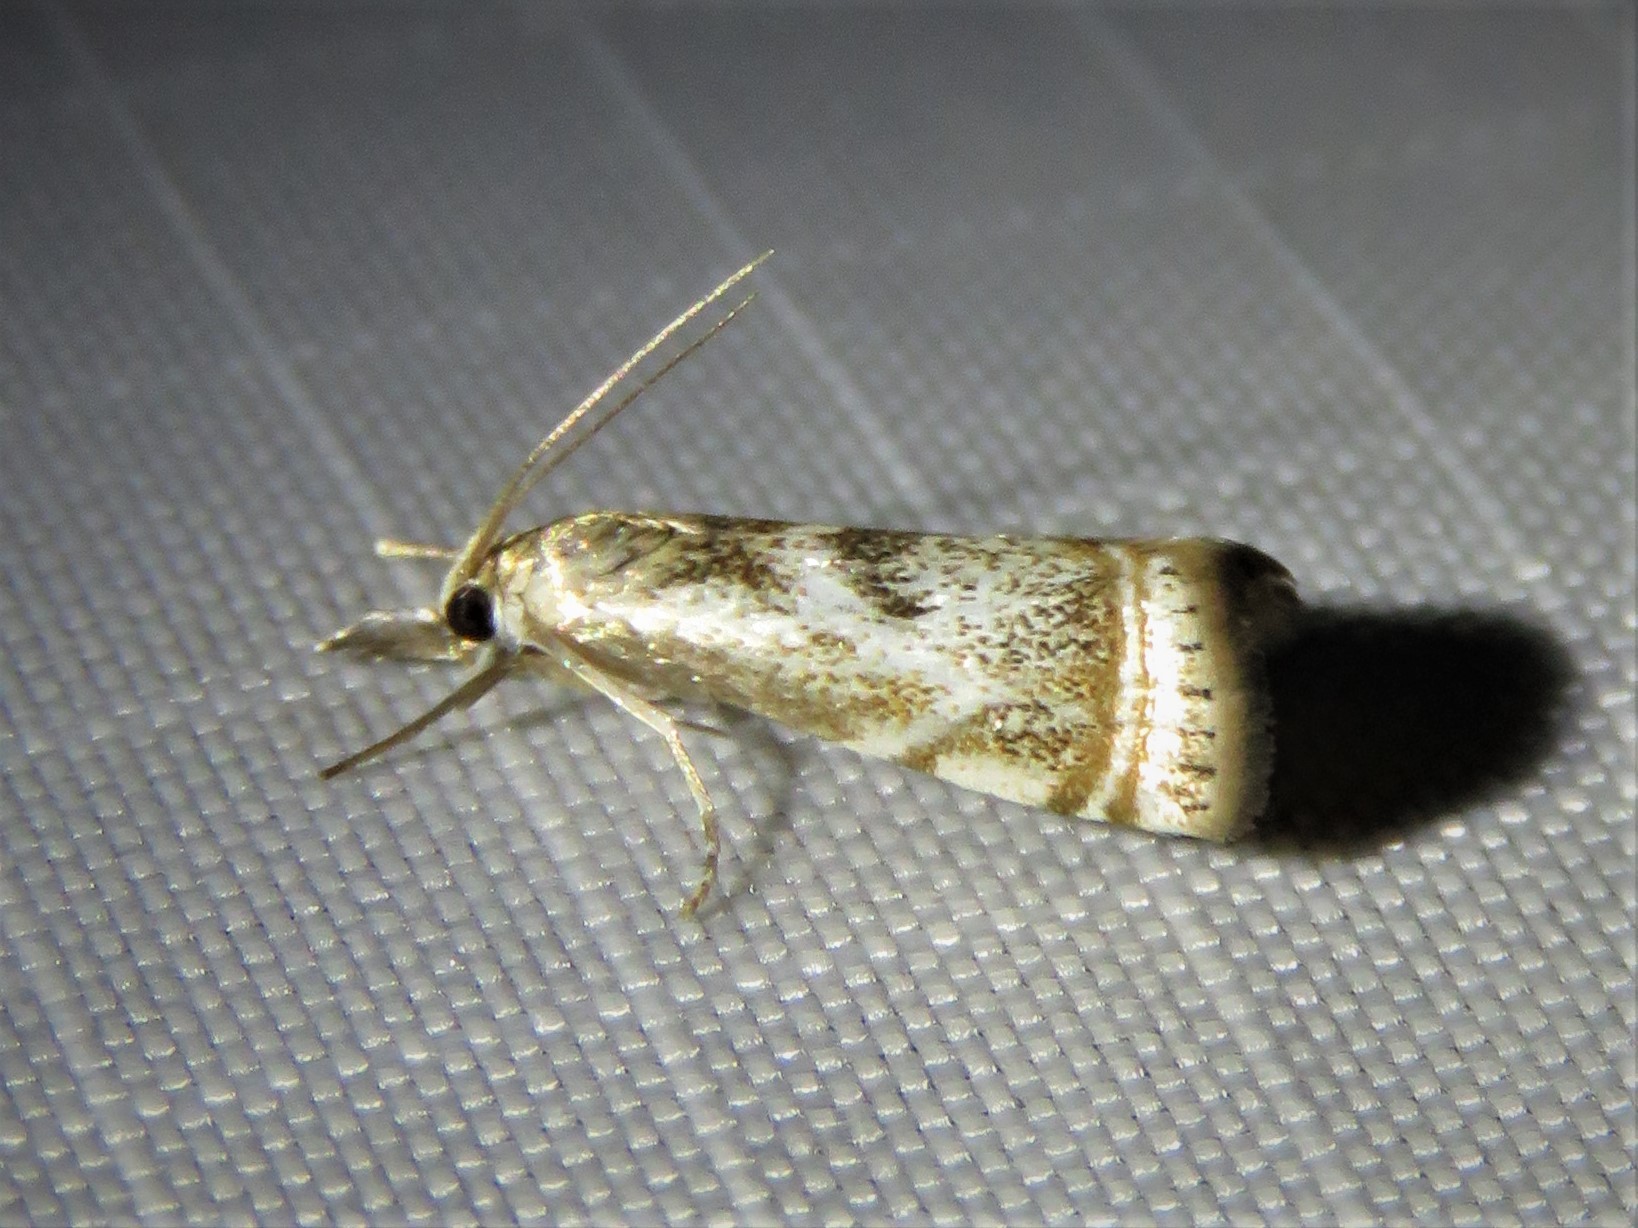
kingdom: Animalia
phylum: Arthropoda
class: Insecta
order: Lepidoptera
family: Crambidae
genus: Microcrambus
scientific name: Microcrambus elegans
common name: Elegant grass-veneer
